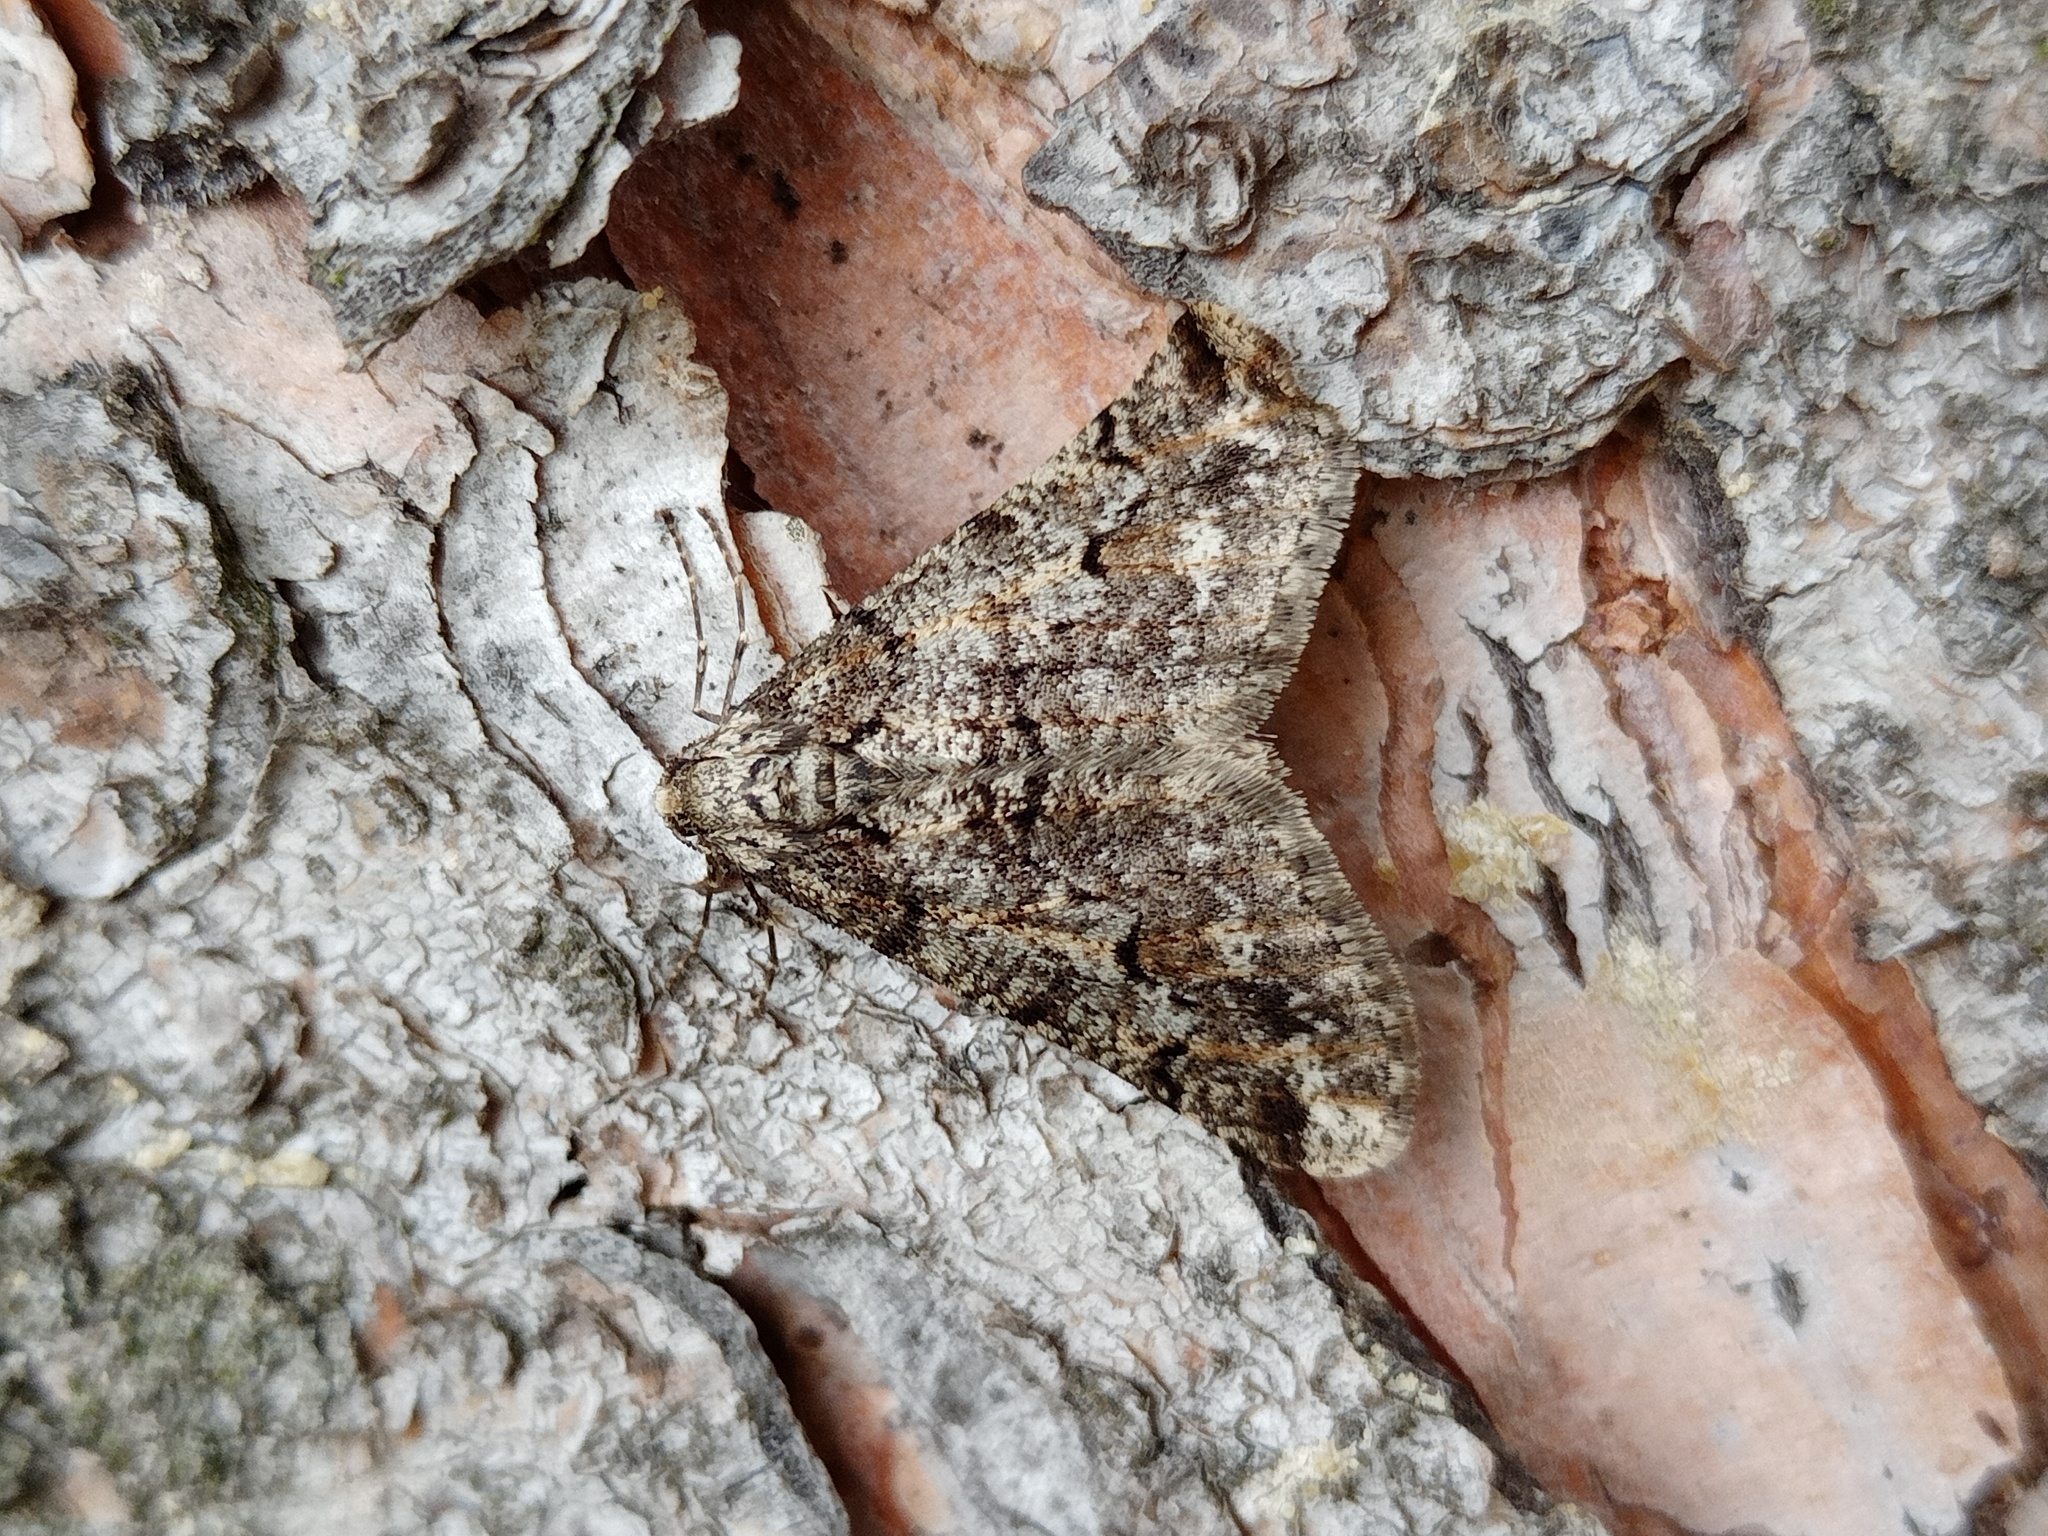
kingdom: Animalia
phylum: Arthropoda
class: Insecta
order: Lepidoptera
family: Geometridae
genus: Agriopis
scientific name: Agriopis leucophaearia
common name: Spring usher
